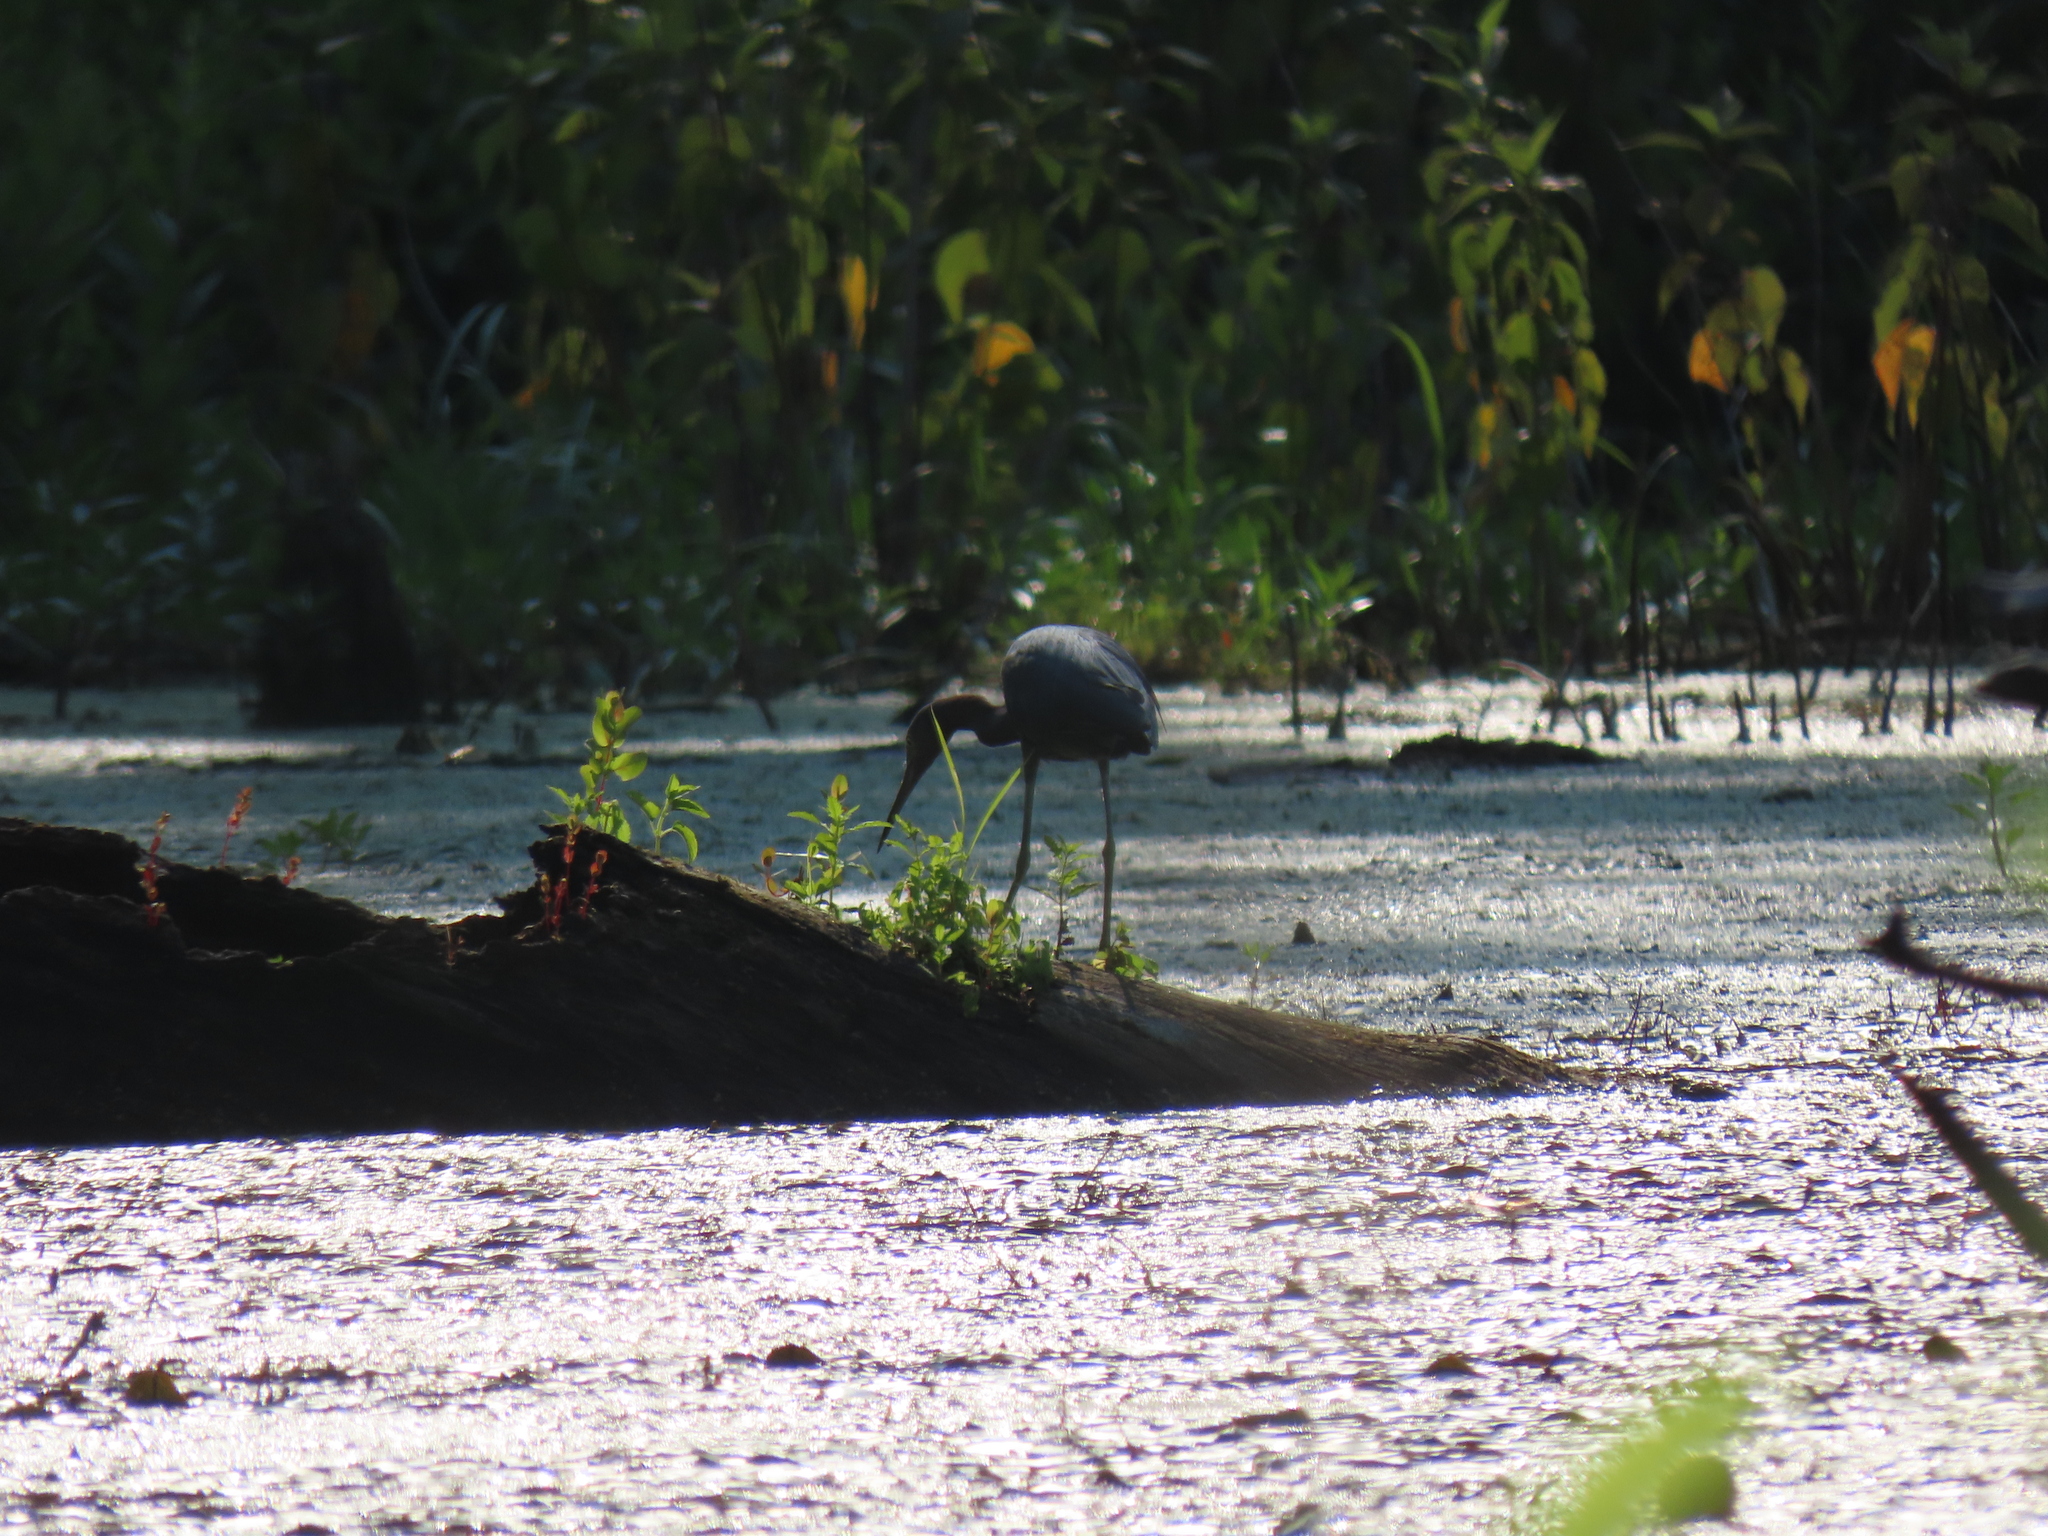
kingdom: Animalia
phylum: Chordata
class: Aves
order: Pelecaniformes
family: Ardeidae
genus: Egretta
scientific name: Egretta caerulea
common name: Little blue heron
